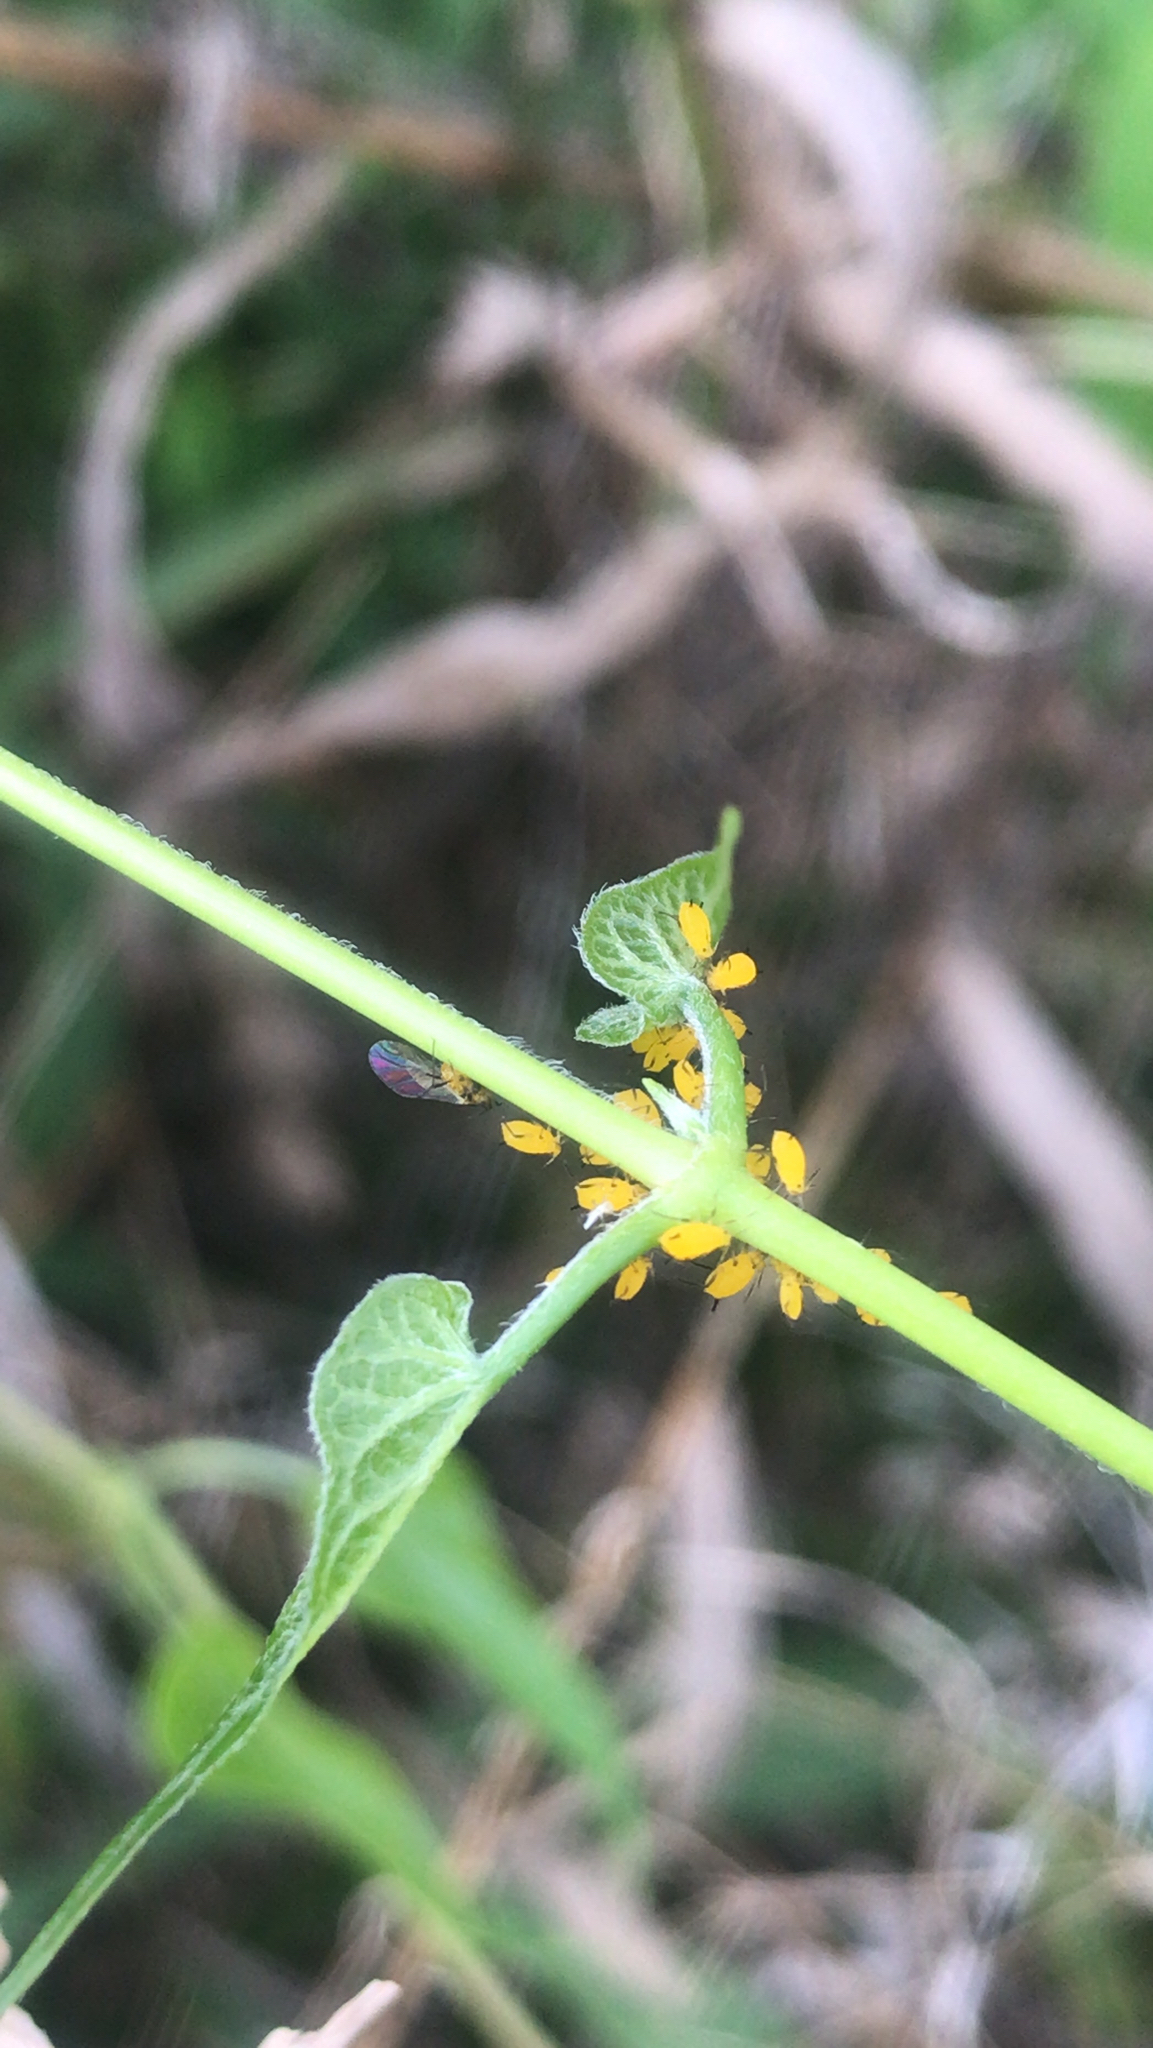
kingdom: Animalia
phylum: Arthropoda
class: Insecta
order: Hemiptera
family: Aphididae
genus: Aphis
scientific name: Aphis nerii
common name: Oleander aphid
